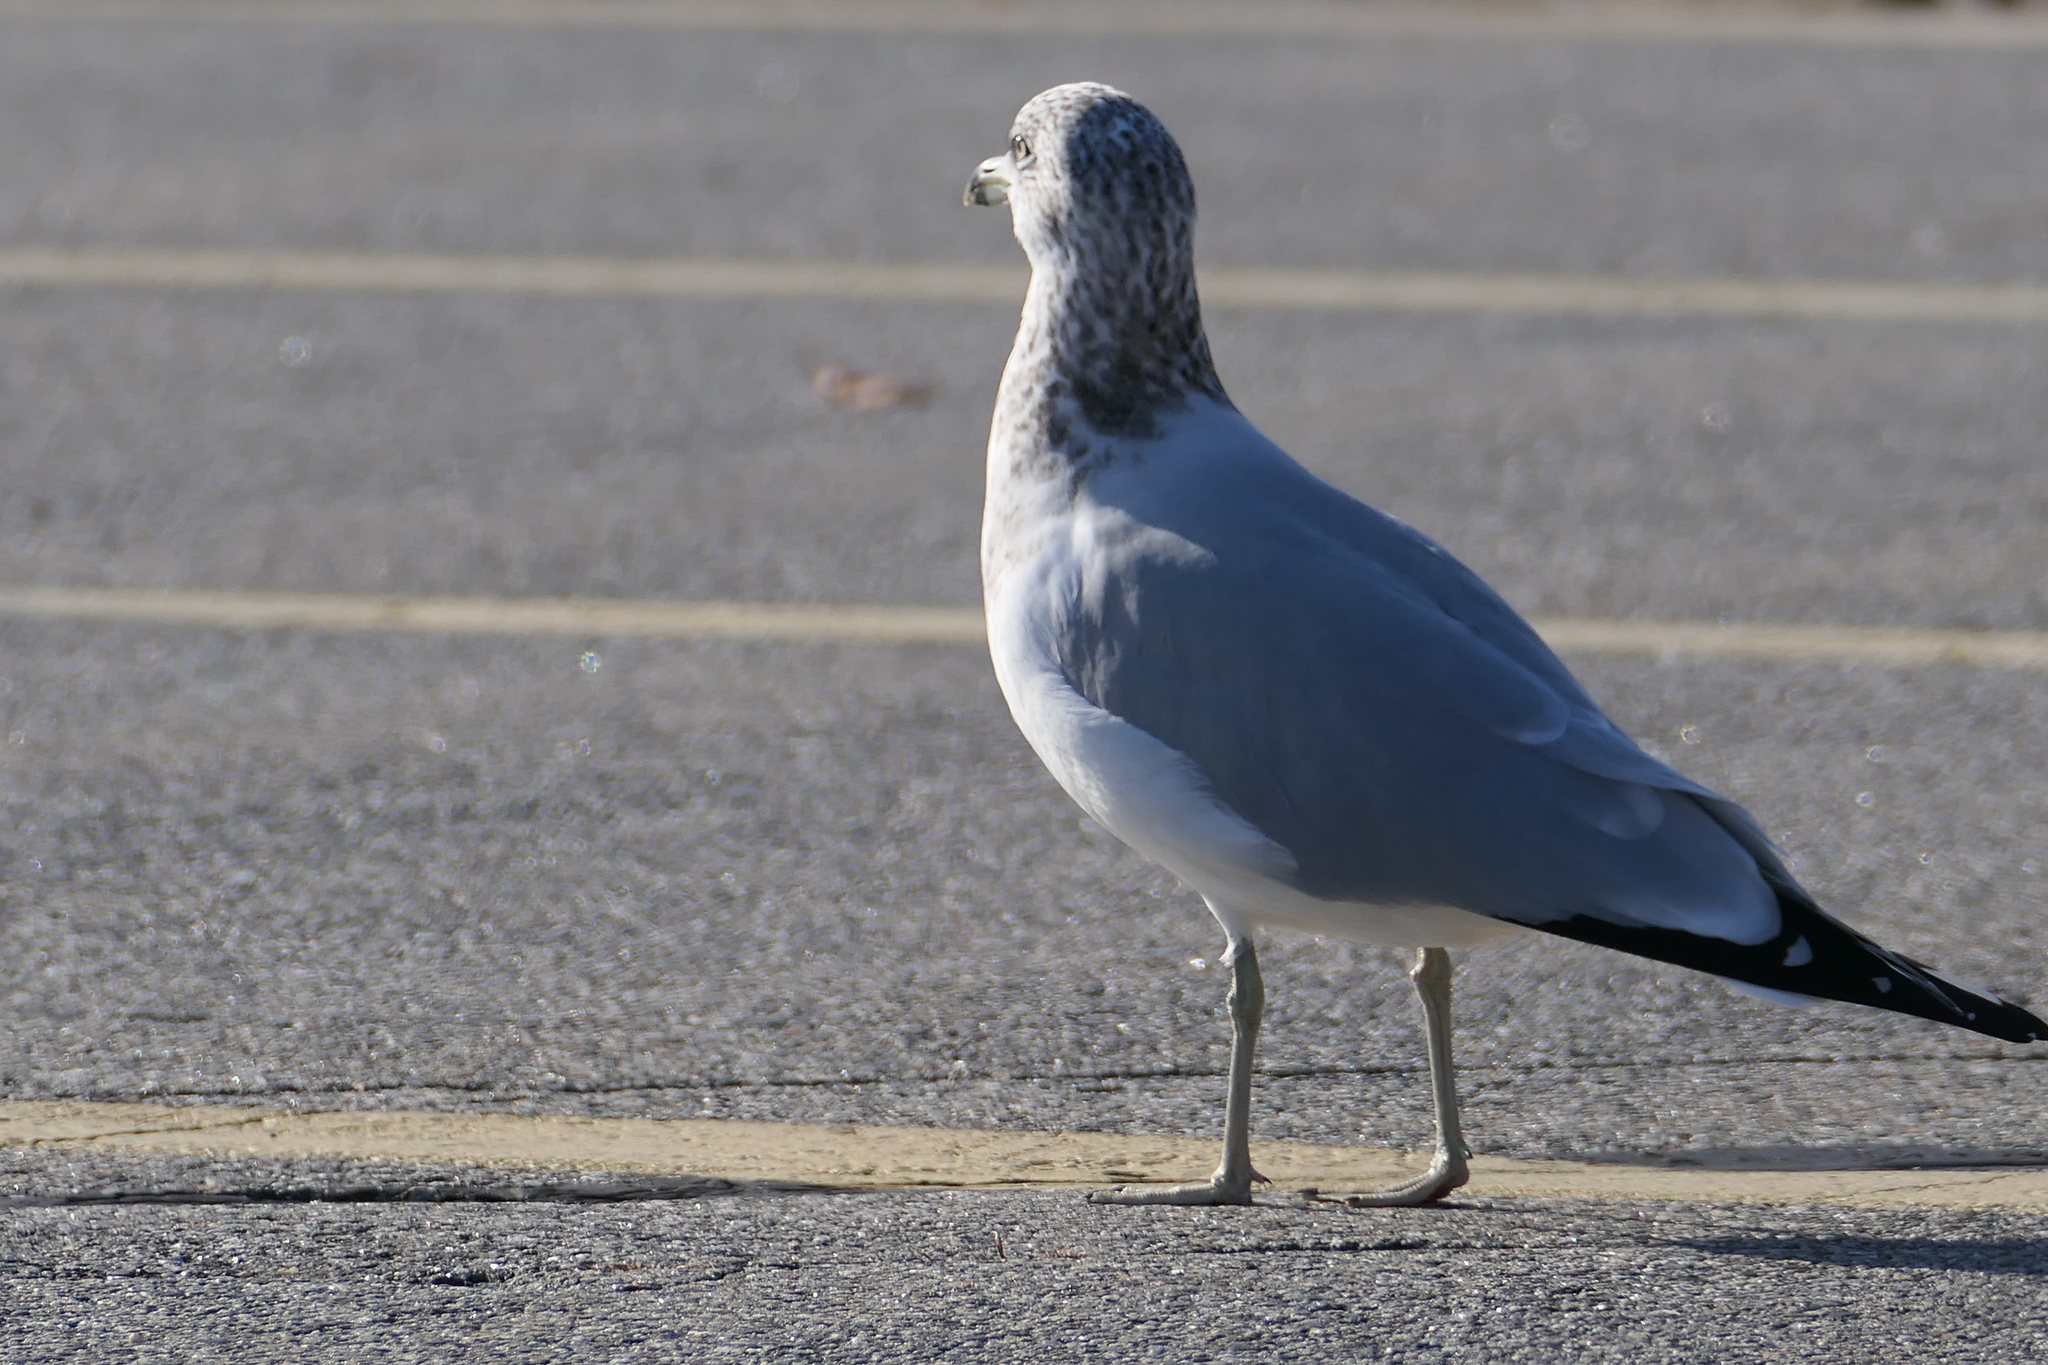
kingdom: Animalia
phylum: Chordata
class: Aves
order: Charadriiformes
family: Laridae
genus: Larus
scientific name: Larus delawarensis
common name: Ring-billed gull
